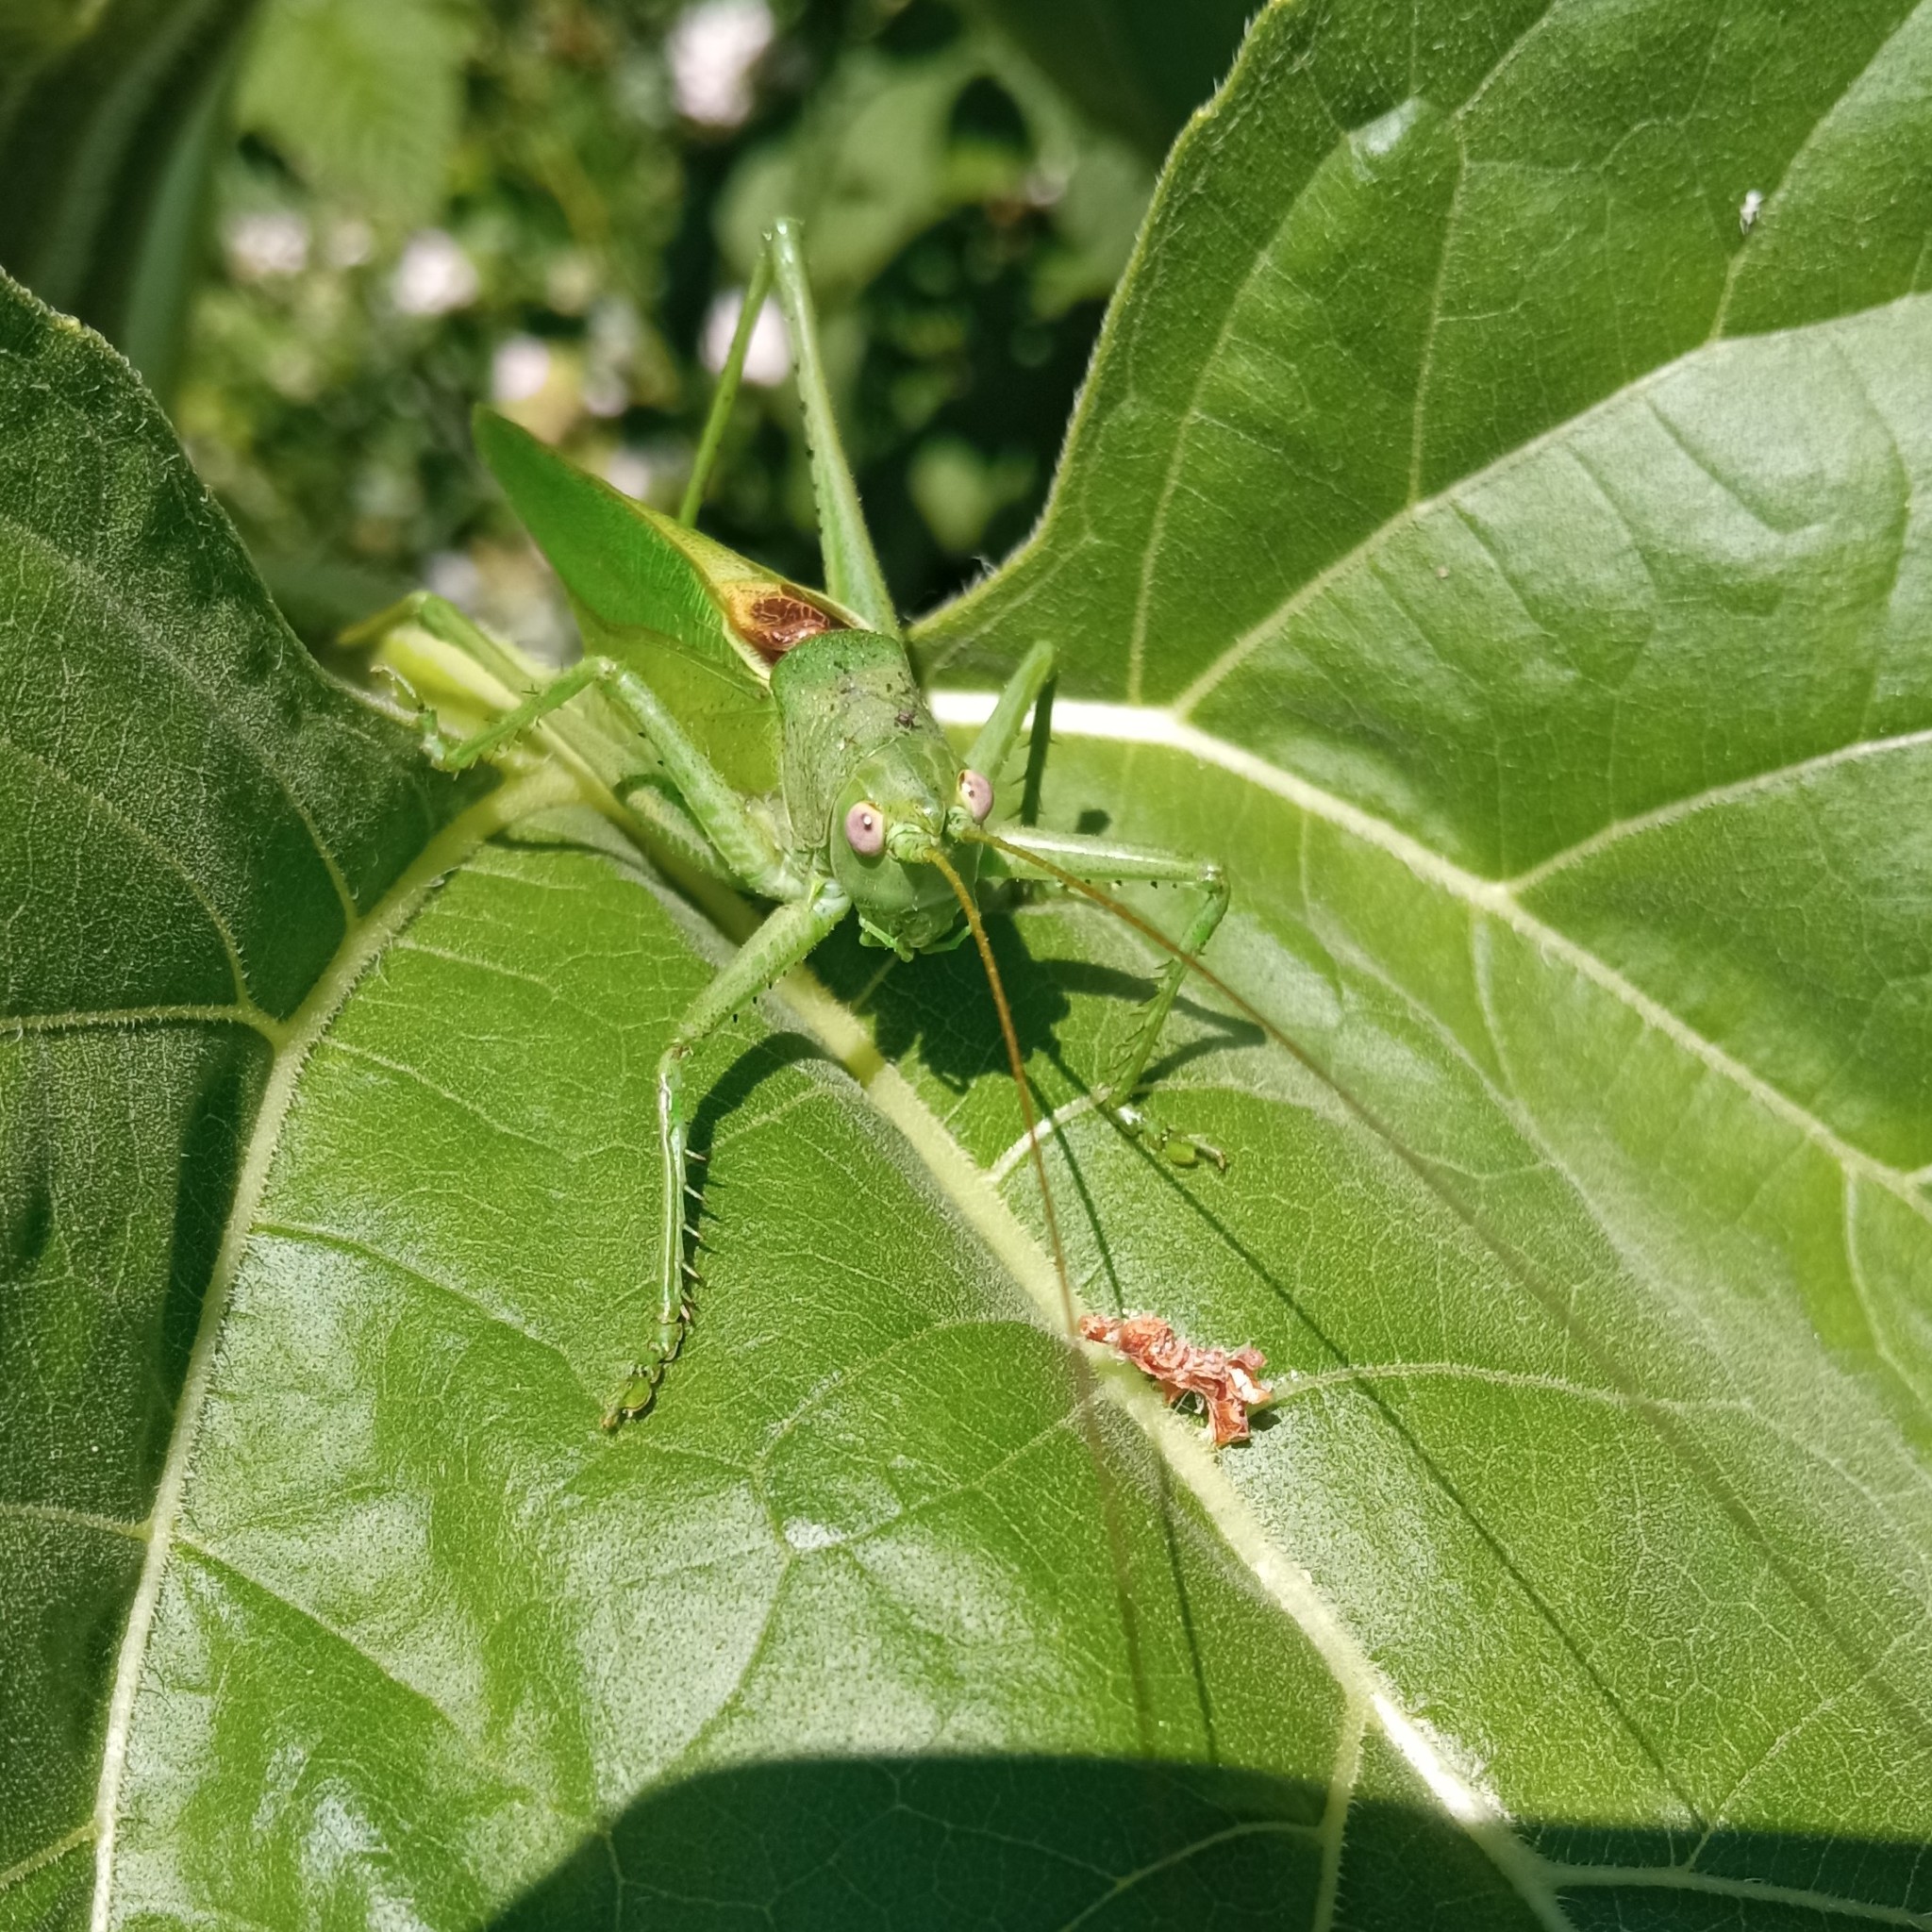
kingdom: Animalia
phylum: Arthropoda
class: Insecta
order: Orthoptera
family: Tettigoniidae
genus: Tettigonia
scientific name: Tettigonia caudata
